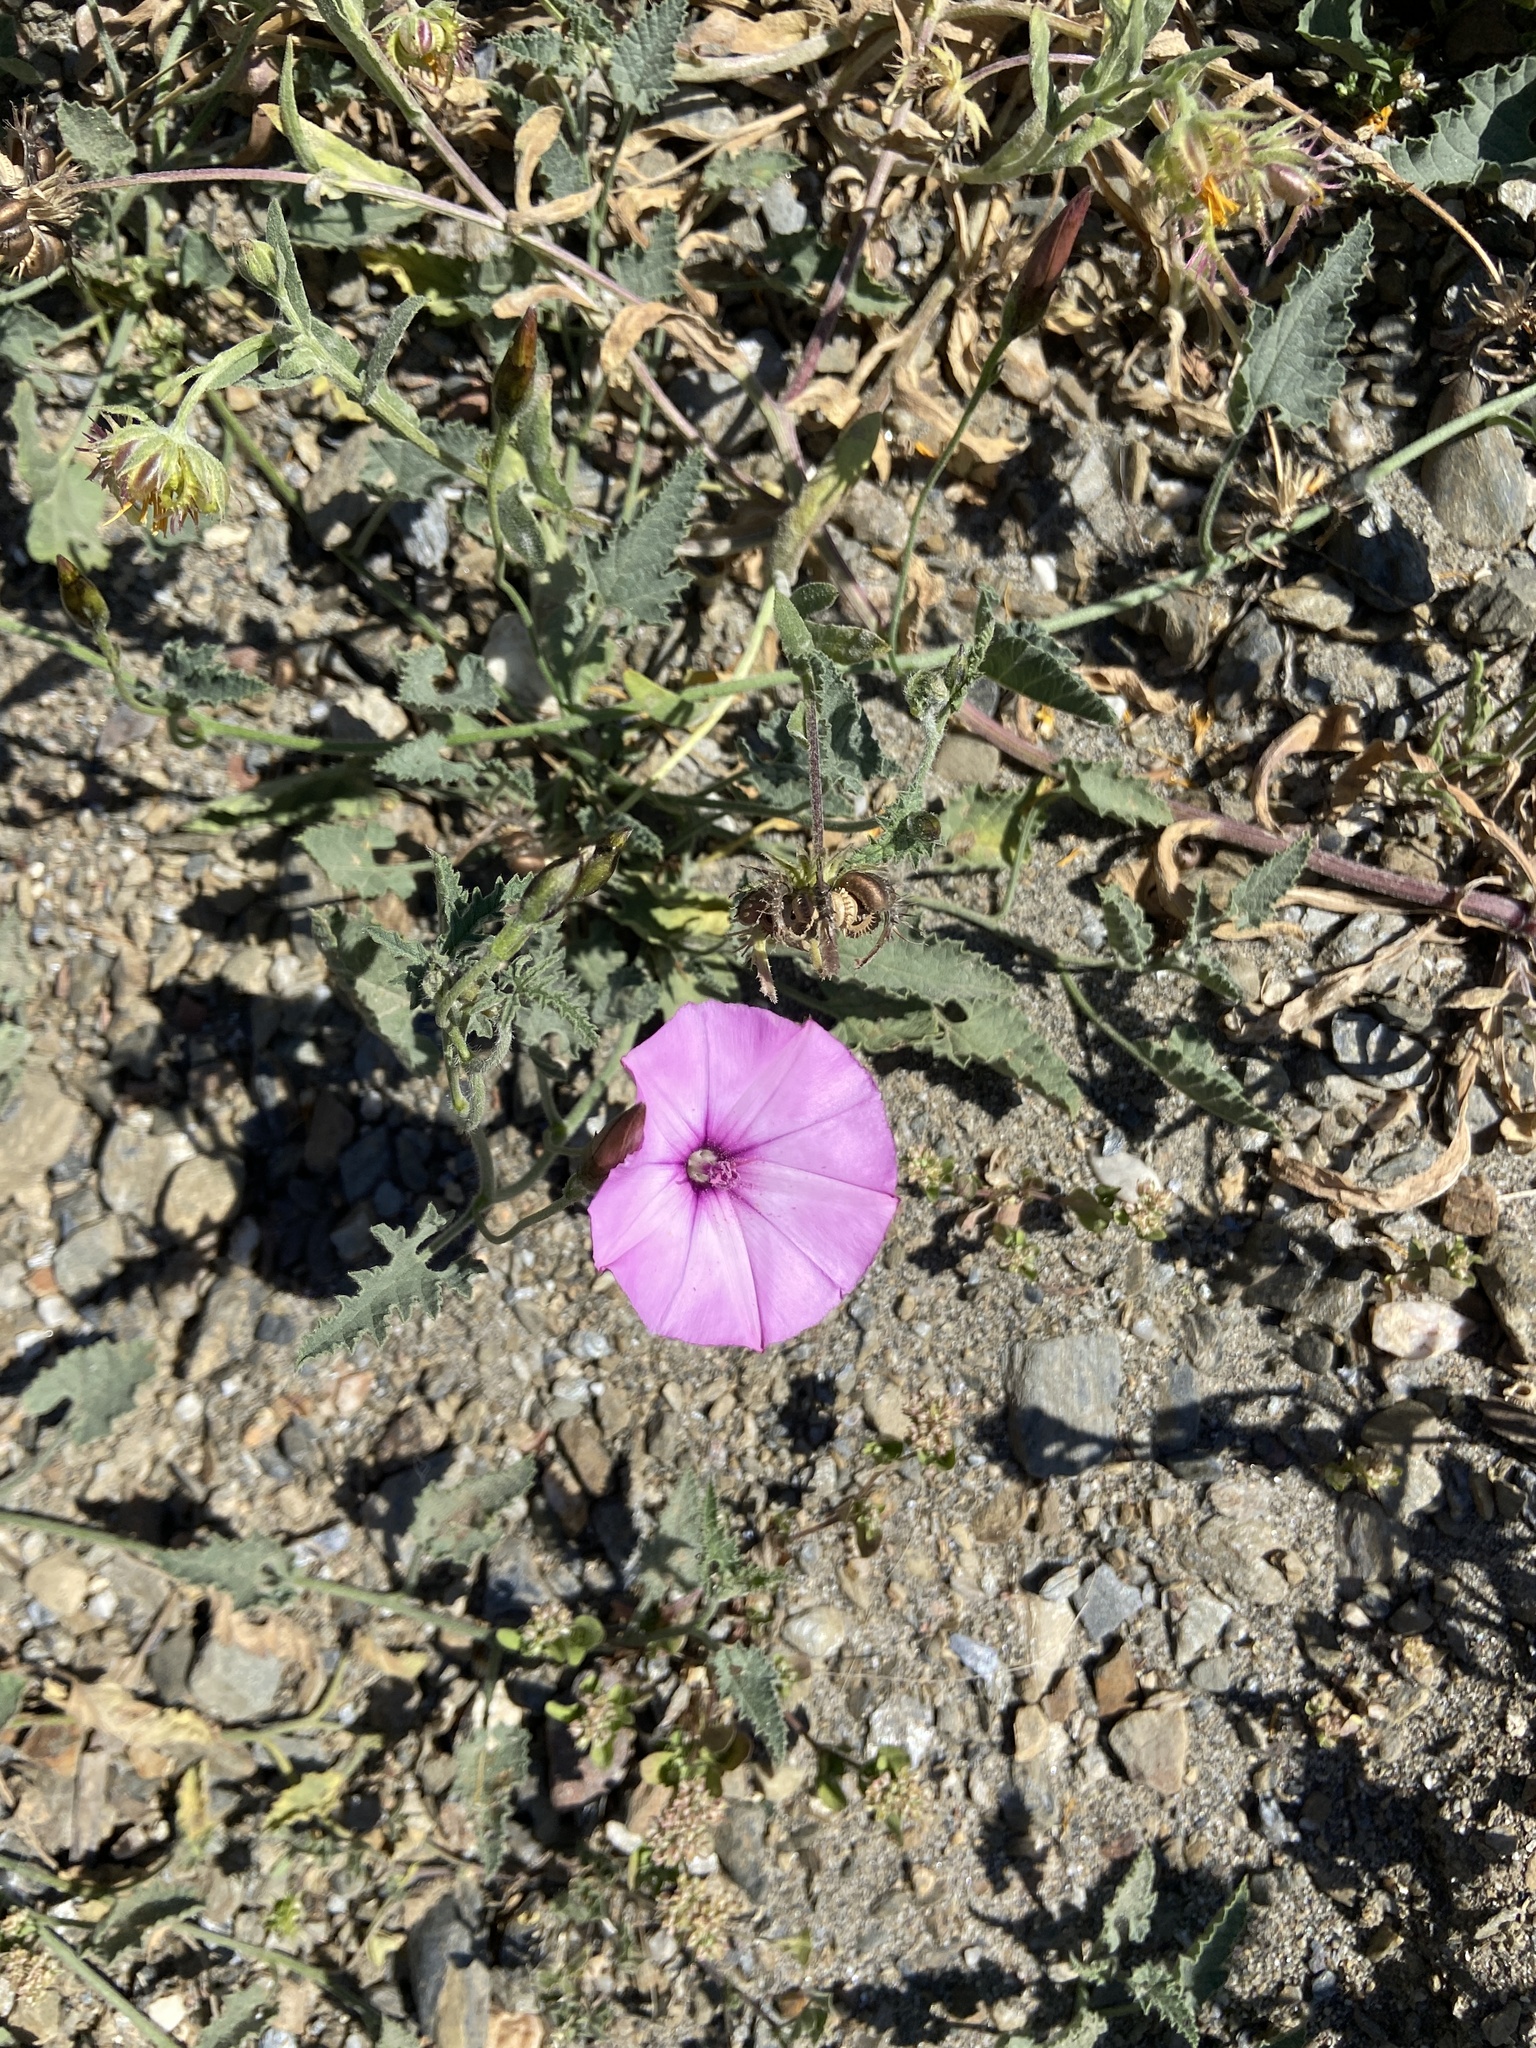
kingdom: Plantae
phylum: Tracheophyta
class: Magnoliopsida
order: Solanales
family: Convolvulaceae
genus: Convolvulus
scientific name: Convolvulus althaeoides
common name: Mallow bindweed
